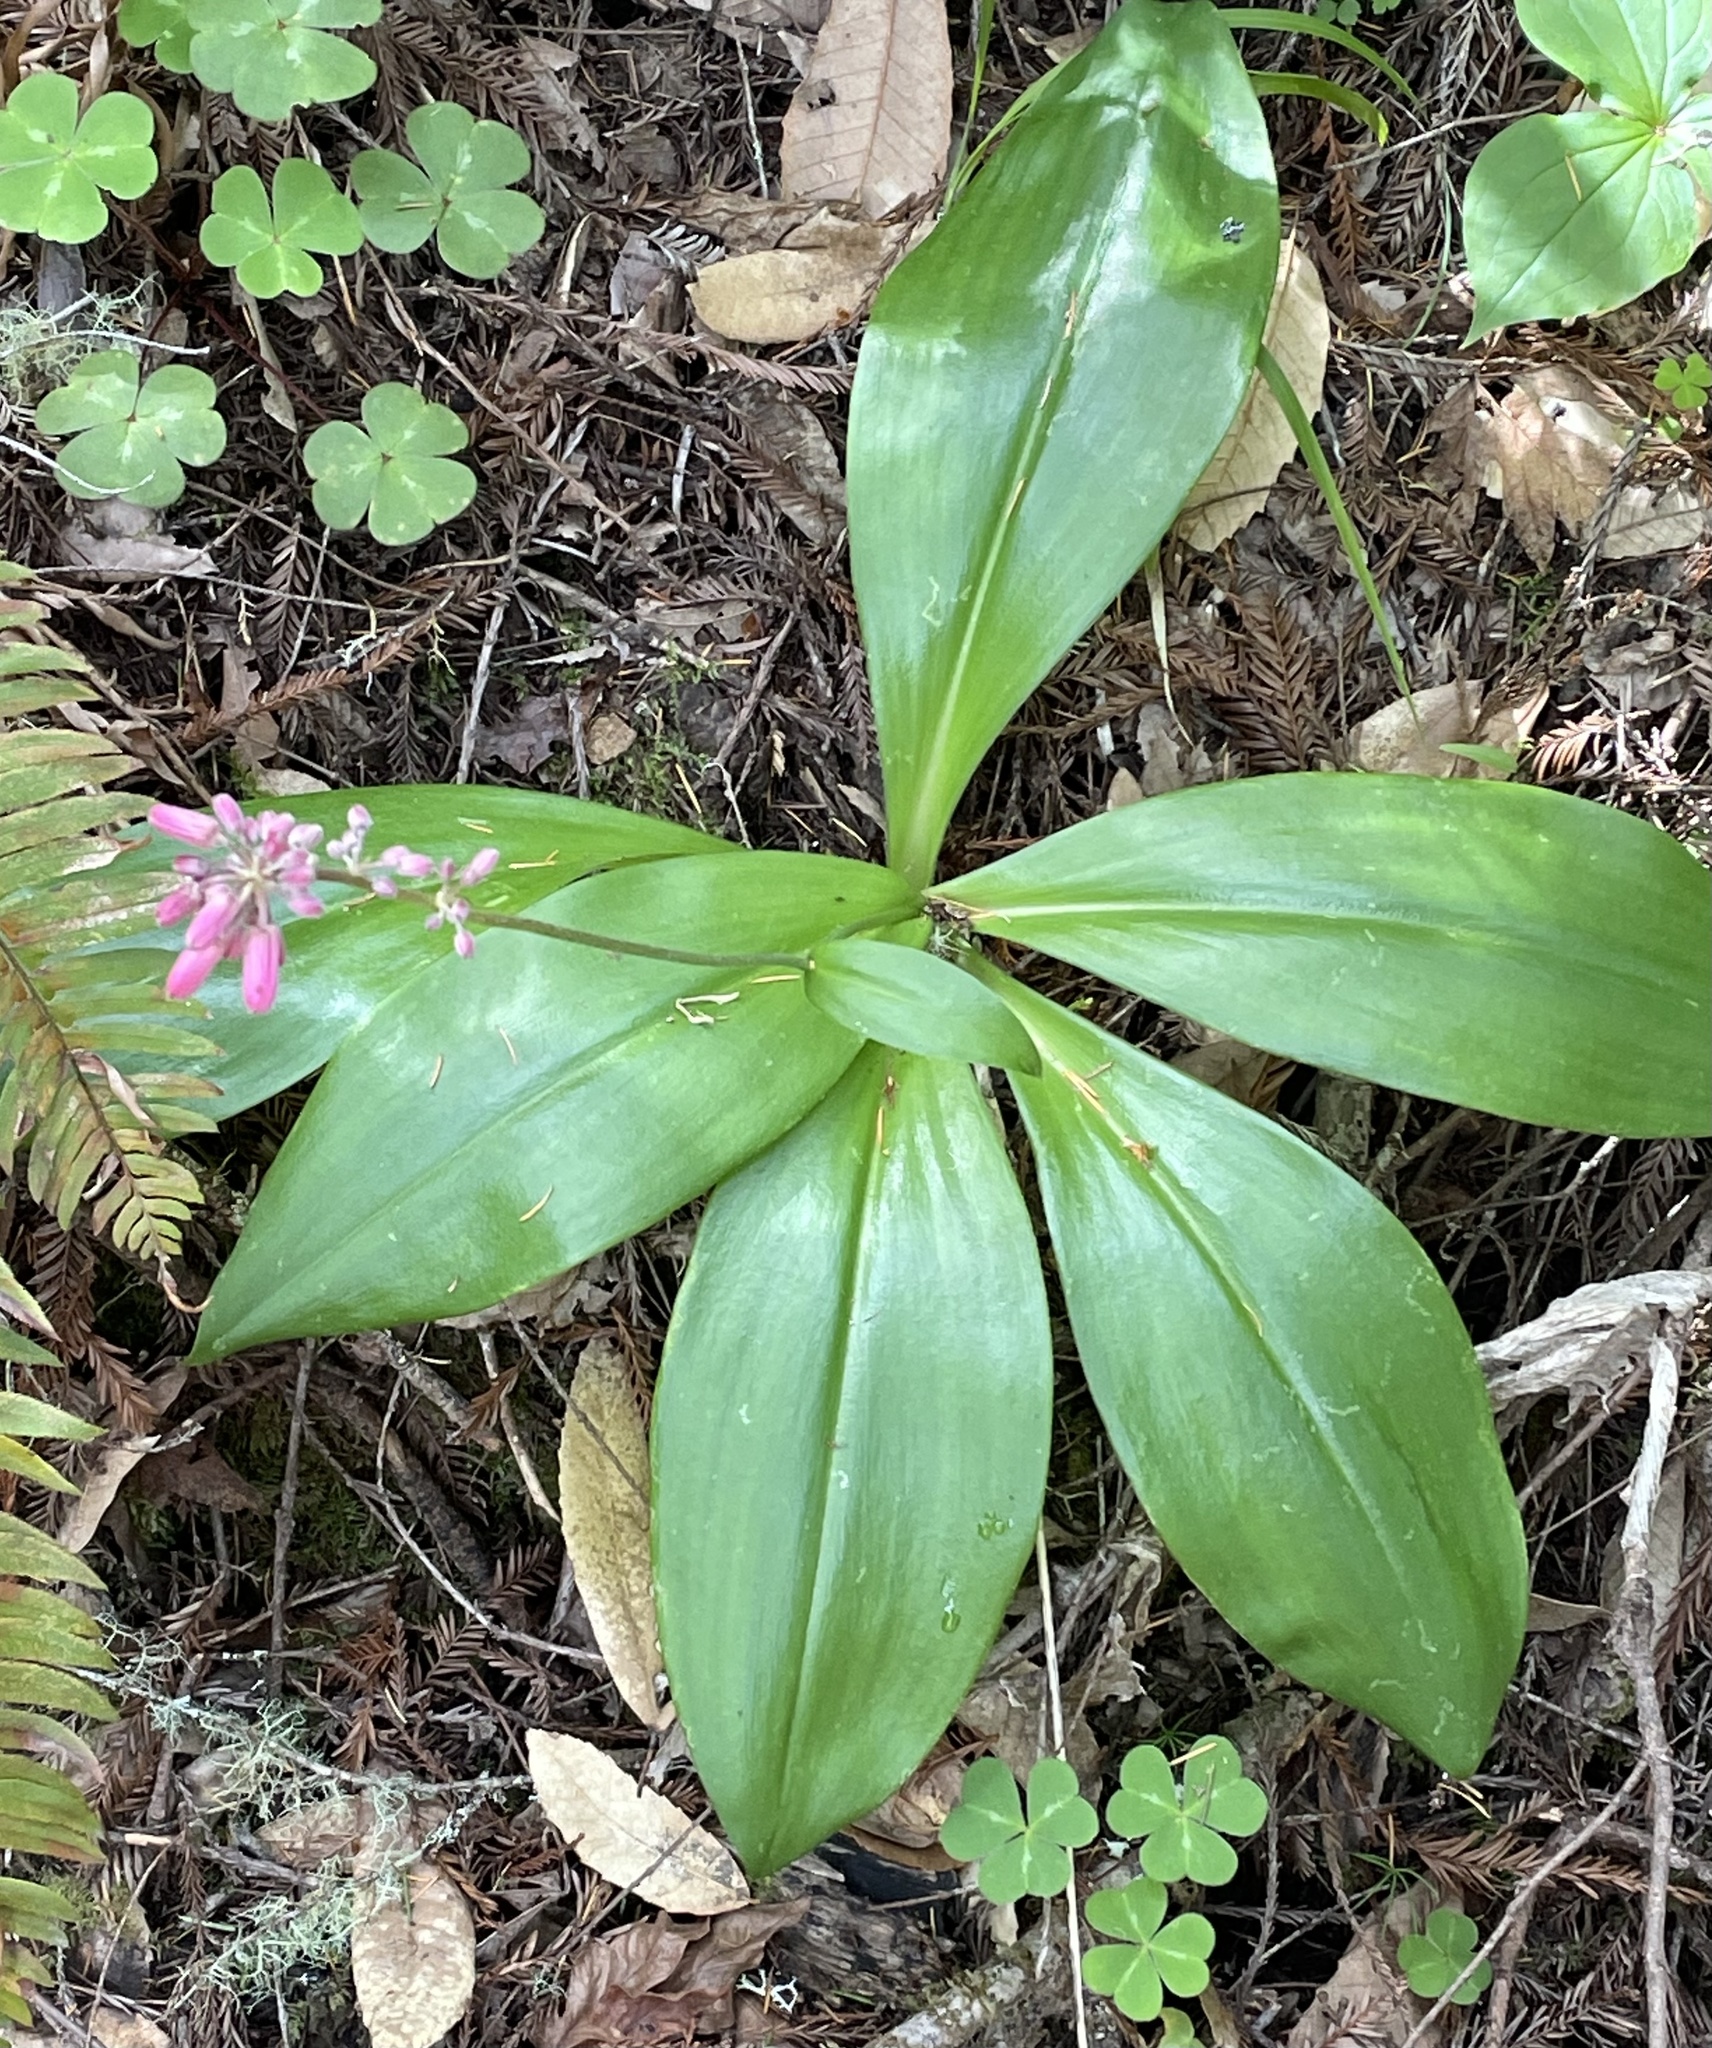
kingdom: Plantae
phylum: Tracheophyta
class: Liliopsida
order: Liliales
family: Liliaceae
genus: Clintonia
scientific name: Clintonia andrewsiana
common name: Red clintonia
